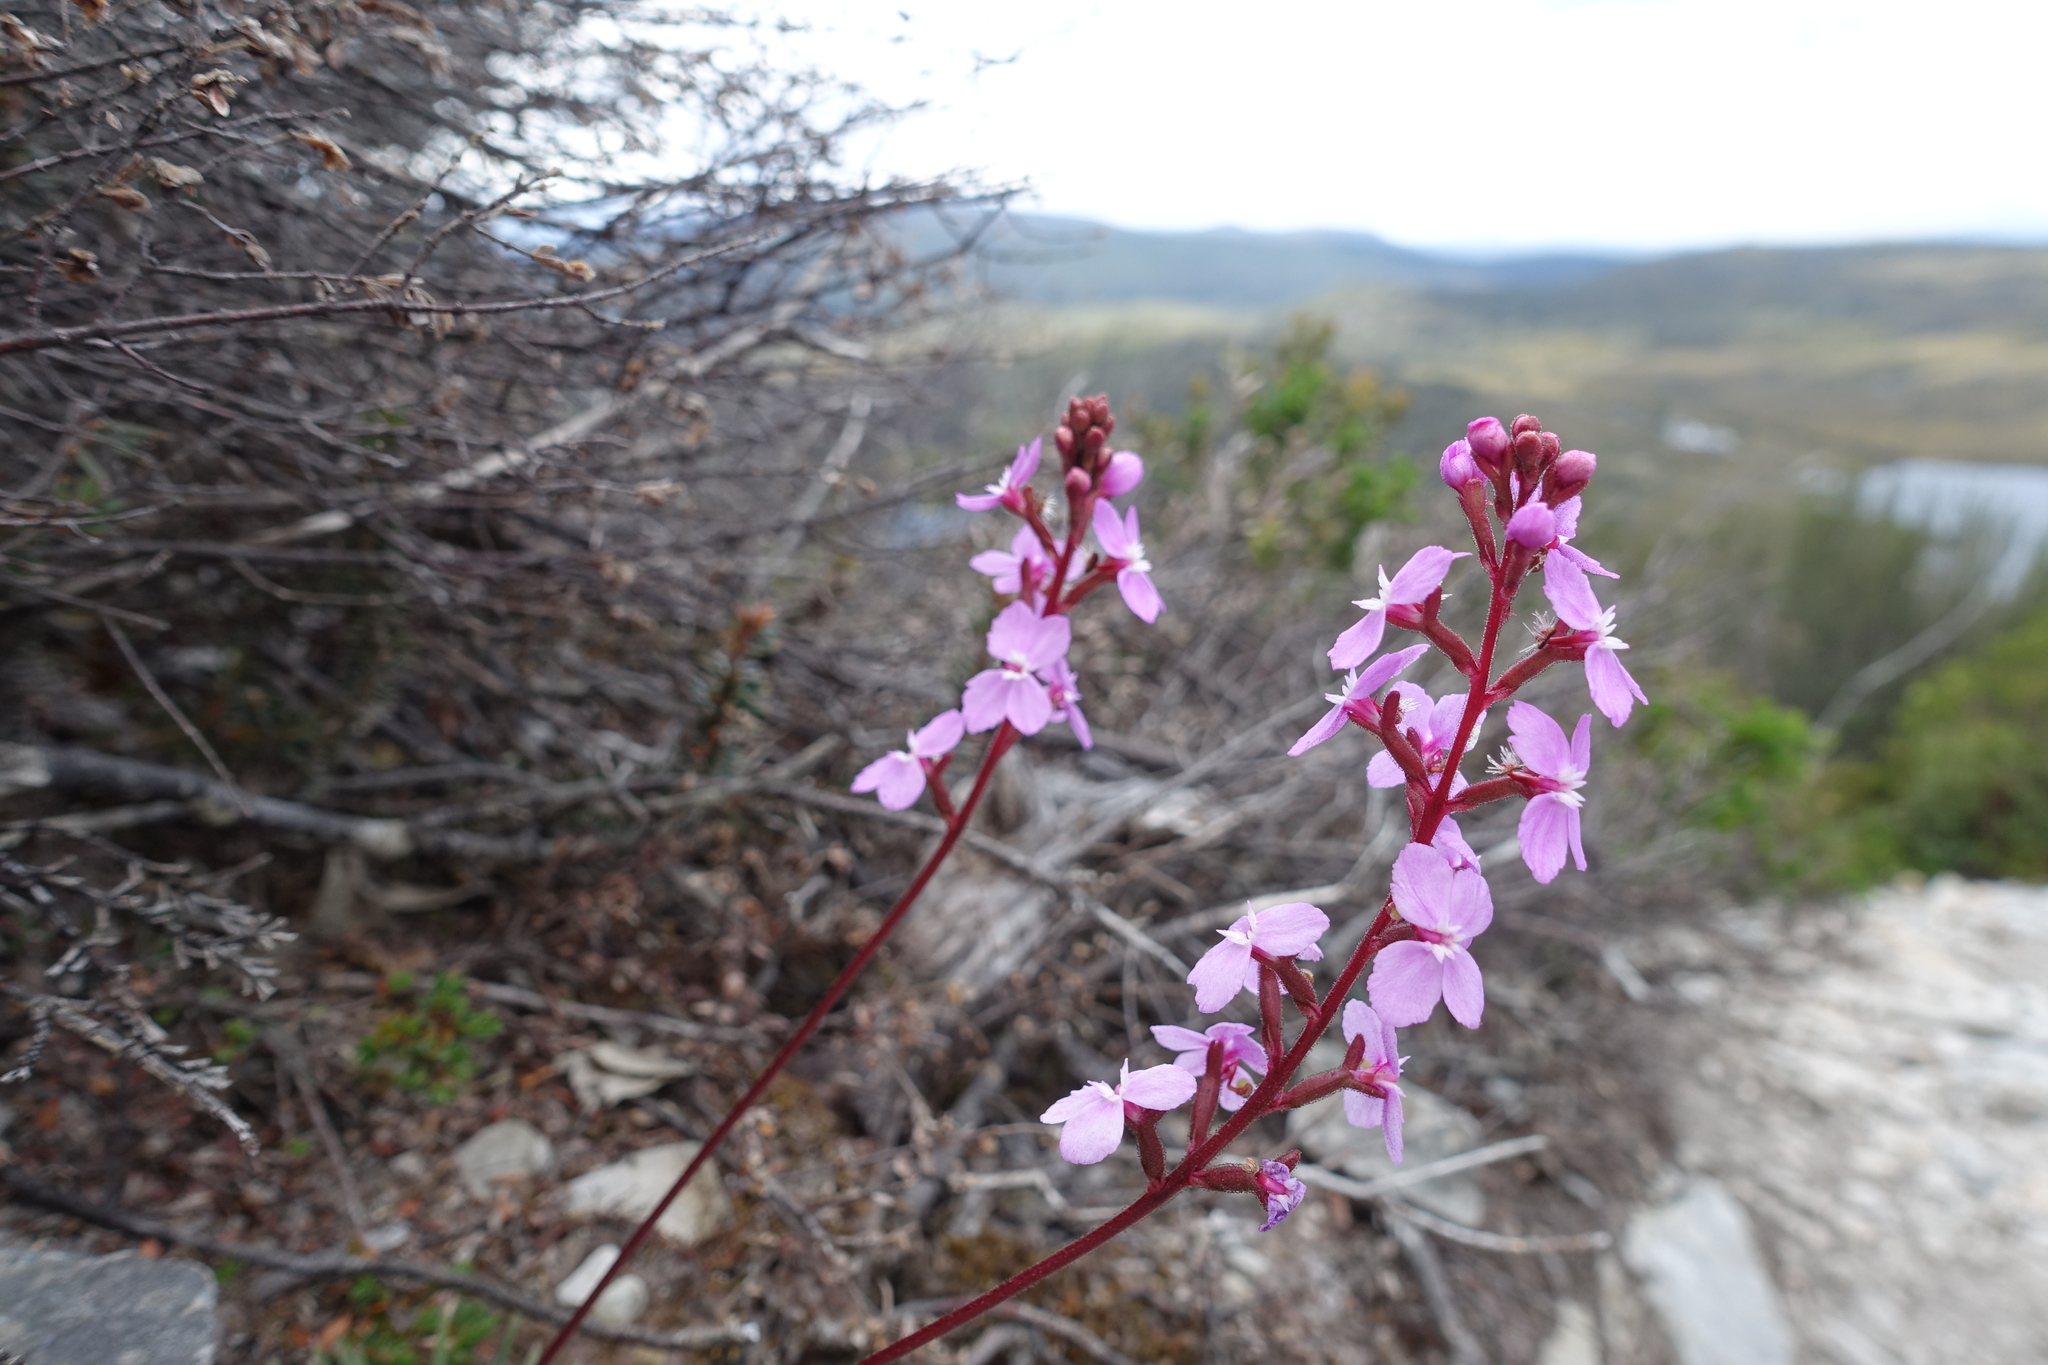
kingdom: Plantae
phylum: Tracheophyta
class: Magnoliopsida
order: Asterales
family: Stylidiaceae
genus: Stylidium
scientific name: Stylidium graminifolium
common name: Grass triggerplant
